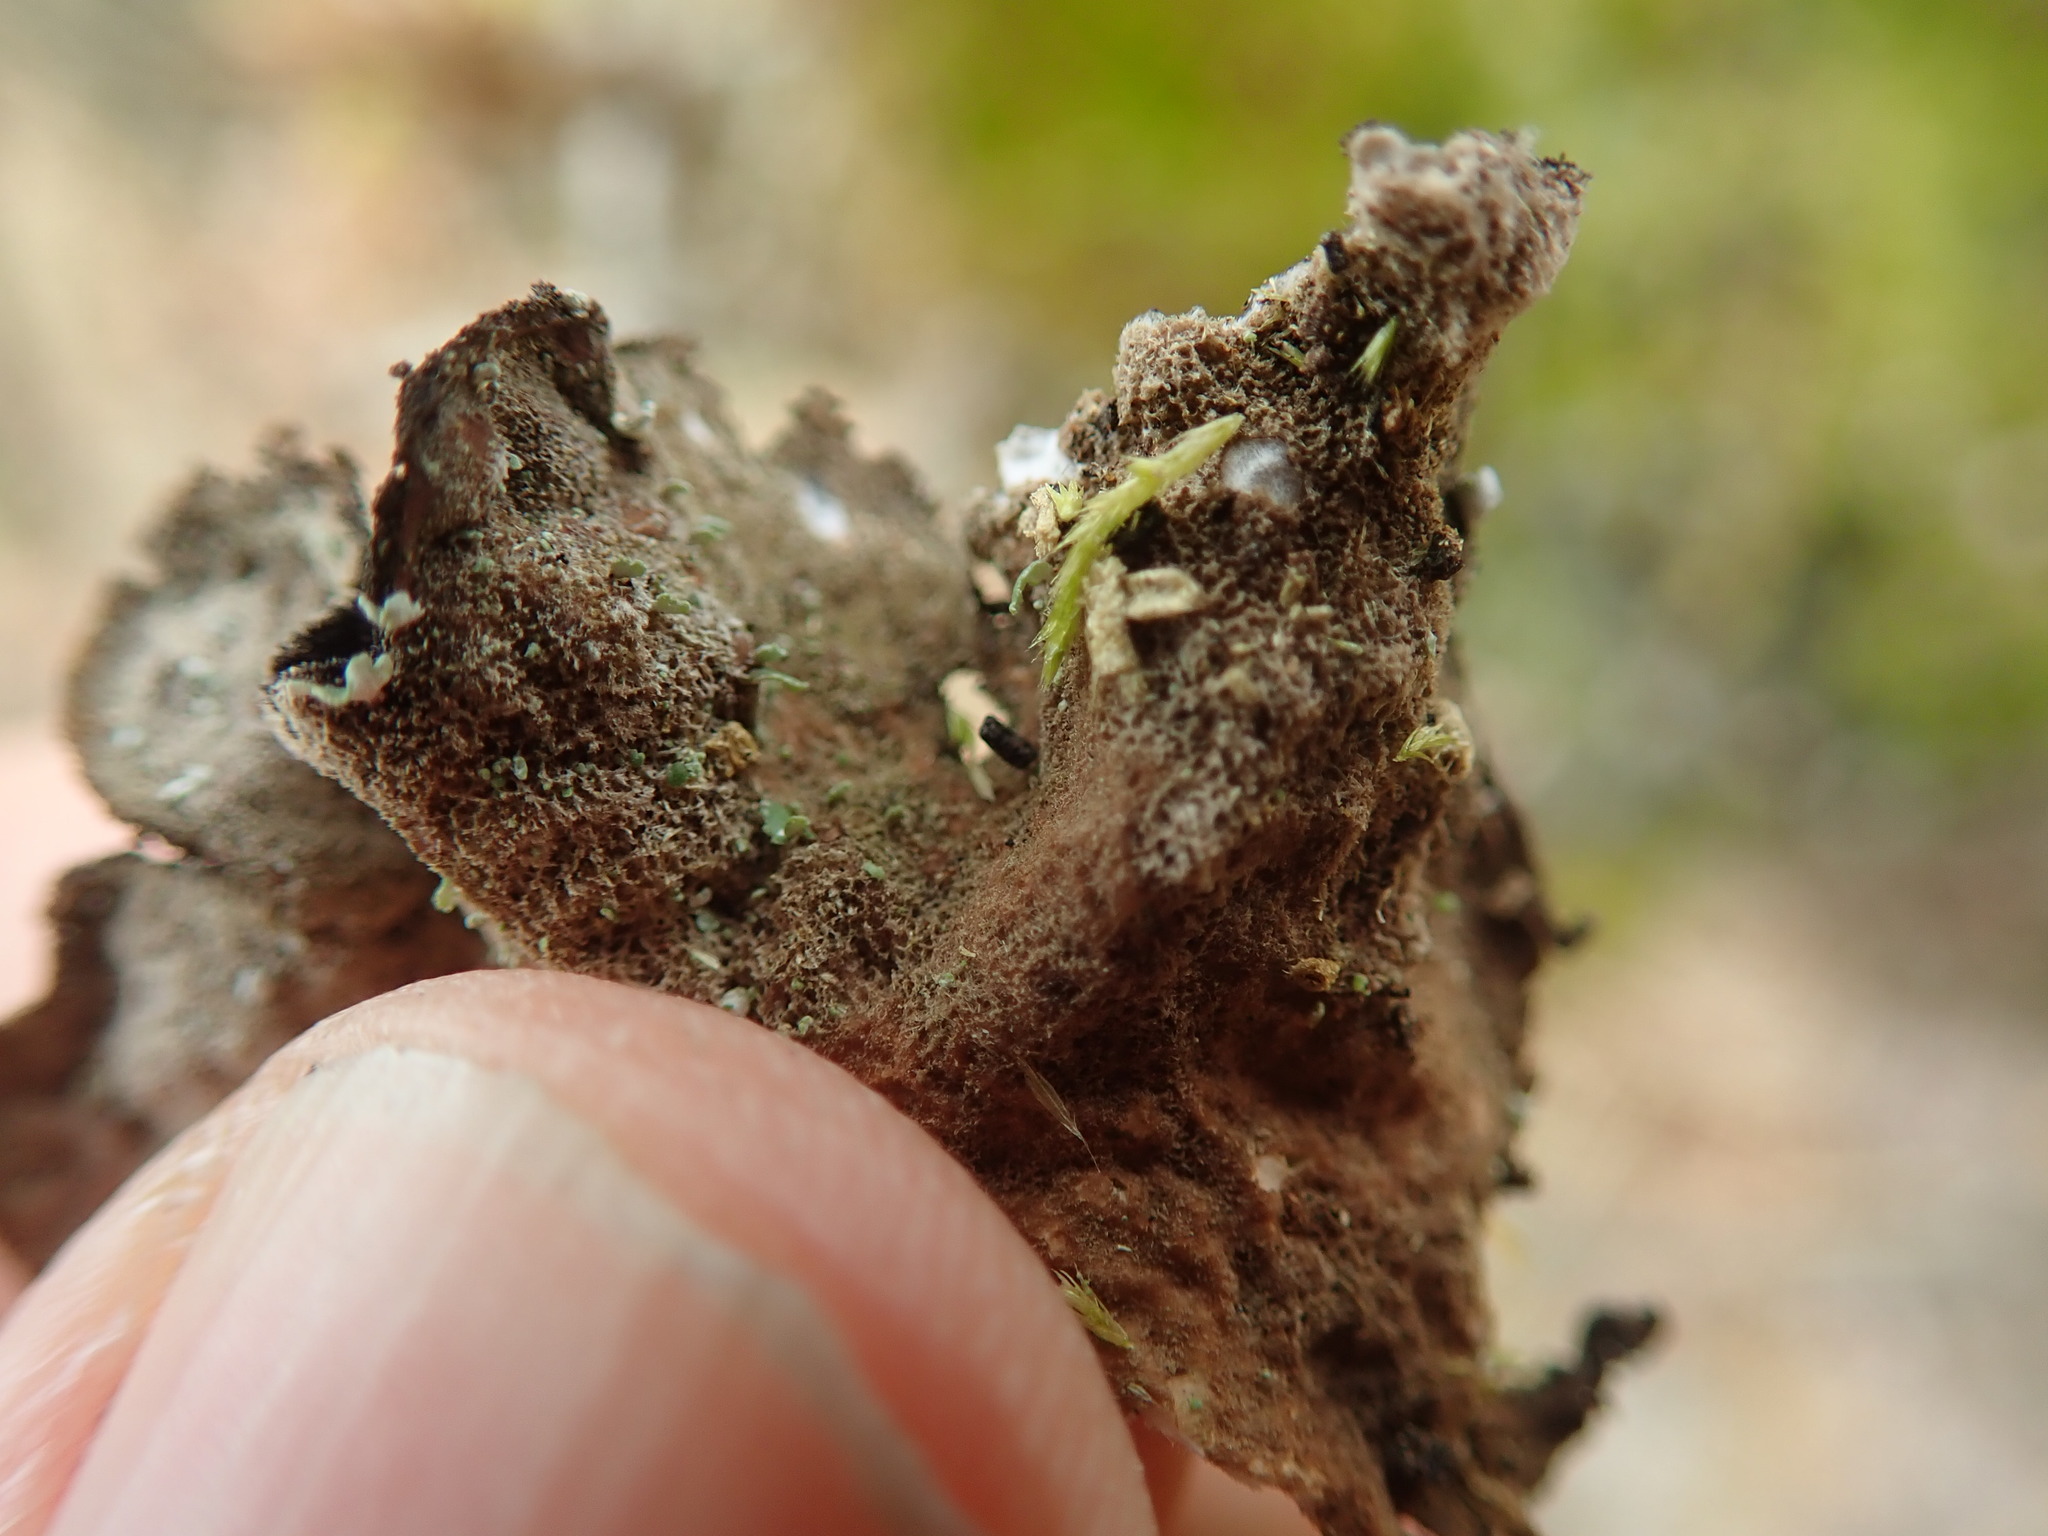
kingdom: Fungi
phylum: Ascomycota
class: Lecanoromycetes
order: Peltigerales
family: Lobariaceae
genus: Sticta
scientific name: Sticta fuliginosa
